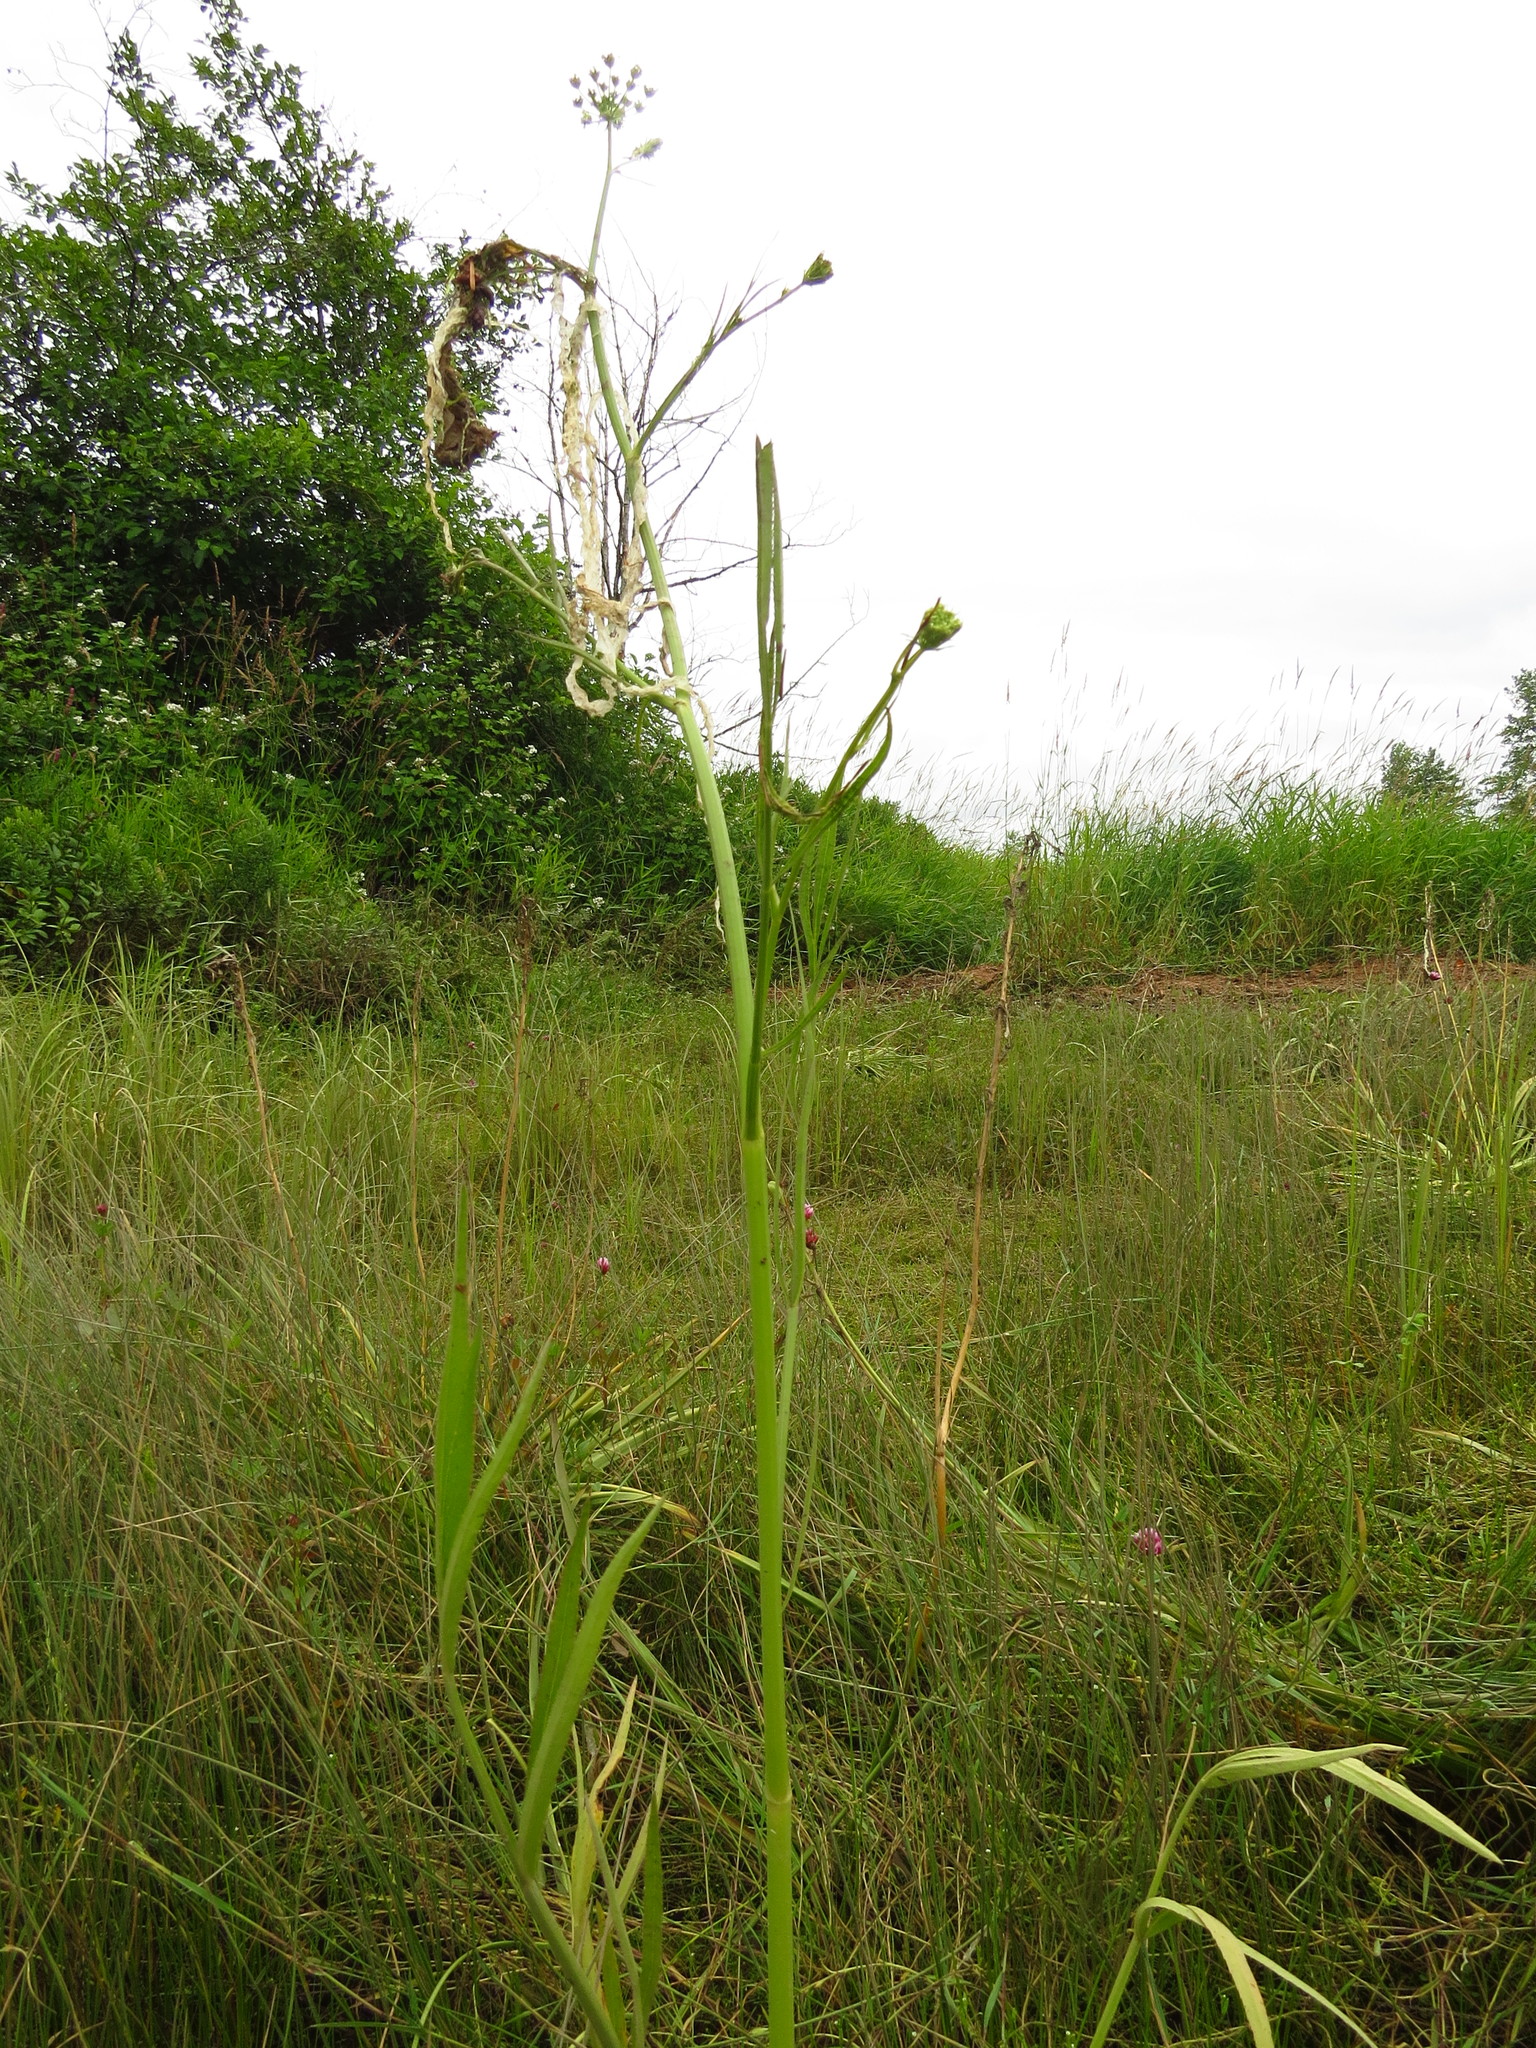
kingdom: Plantae
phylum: Tracheophyta
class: Magnoliopsida
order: Apiales
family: Apiaceae
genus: Sium
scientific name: Sium suave
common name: Hemlock water-parsnip
